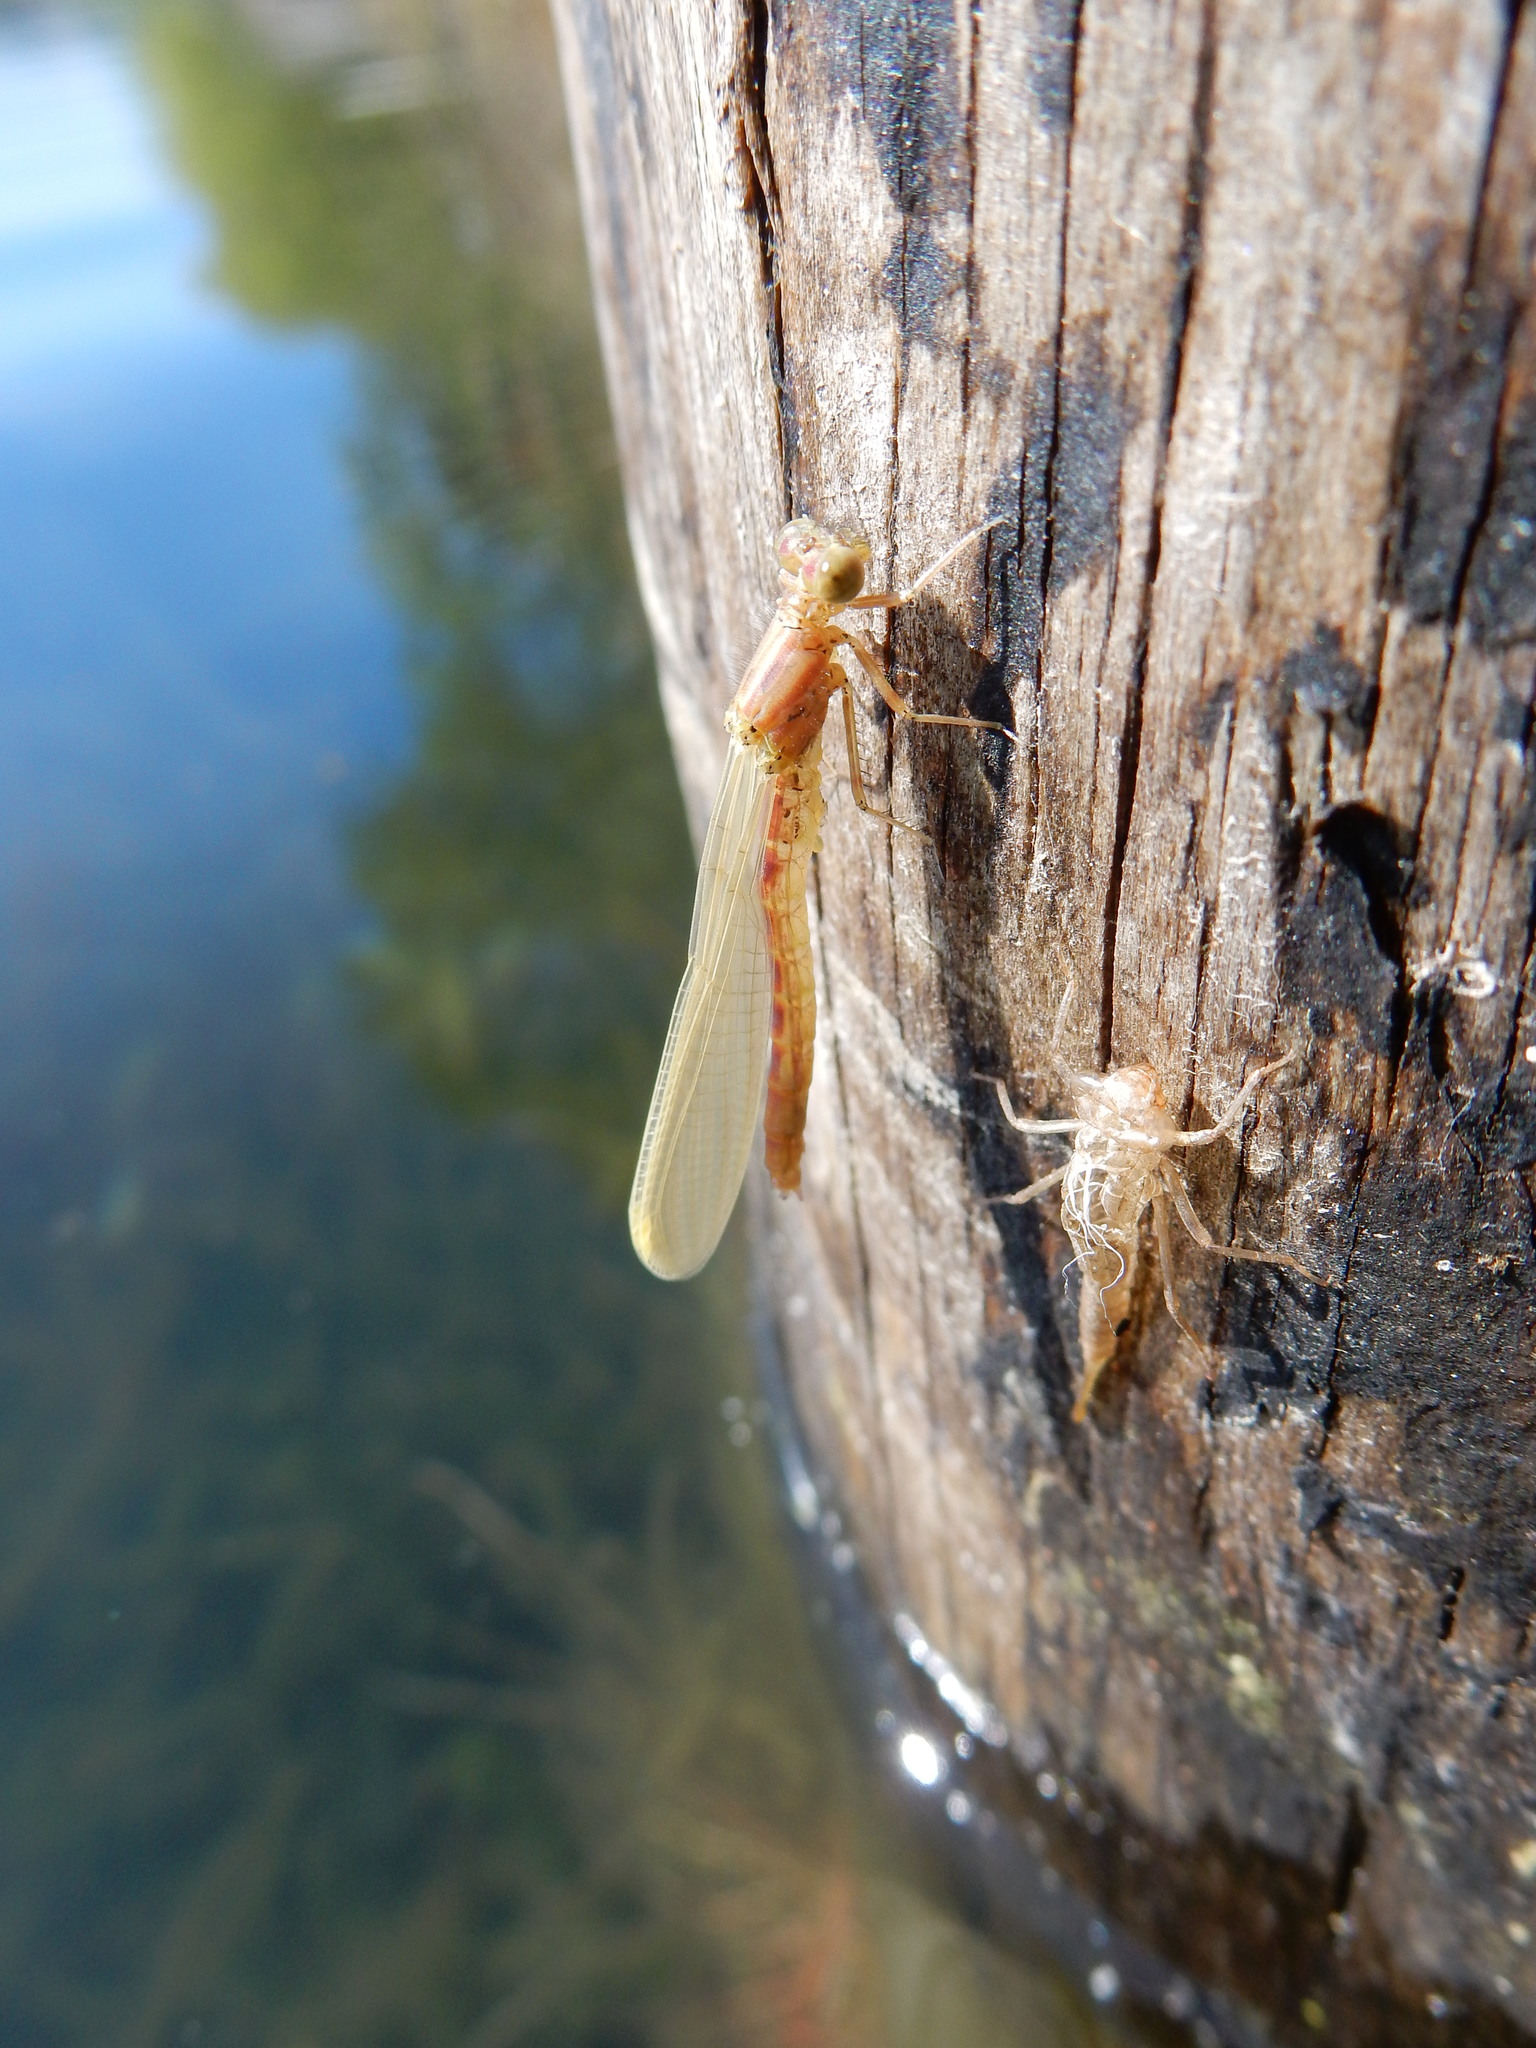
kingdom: Animalia
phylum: Arthropoda
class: Insecta
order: Odonata
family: Coenagrionidae
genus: Xanthocnemis
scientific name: Xanthocnemis zealandica
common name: Common redcoat damselfly
